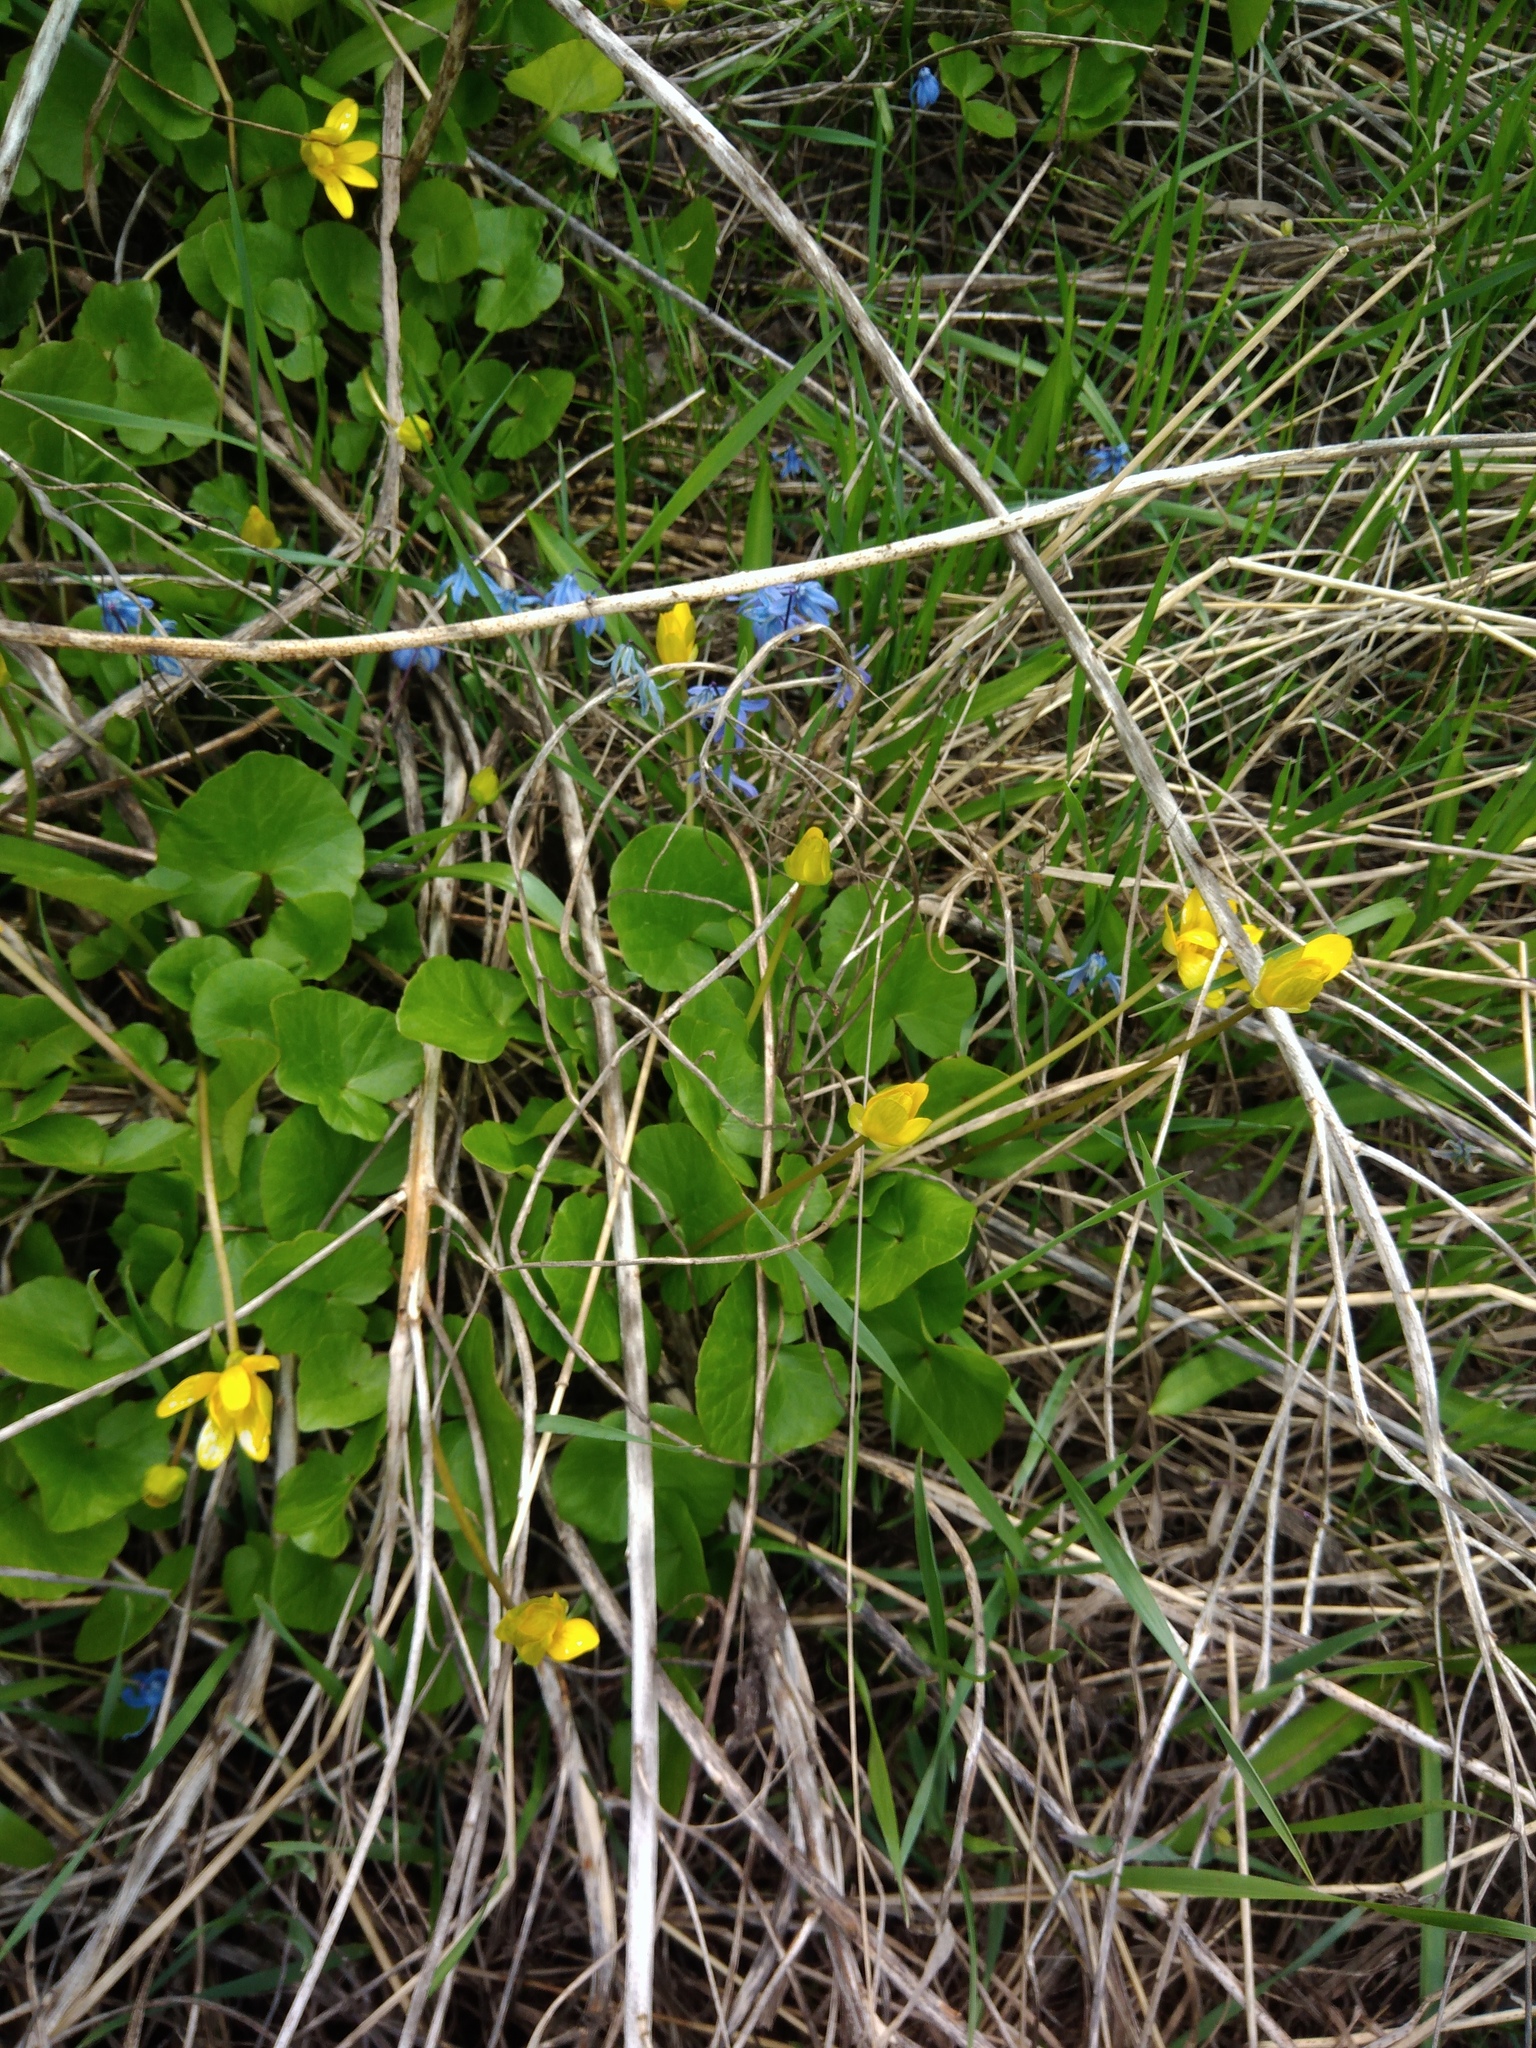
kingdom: Plantae
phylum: Tracheophyta
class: Magnoliopsida
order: Ranunculales
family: Ranunculaceae
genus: Ficaria
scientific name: Ficaria verna
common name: Lesser celandine
